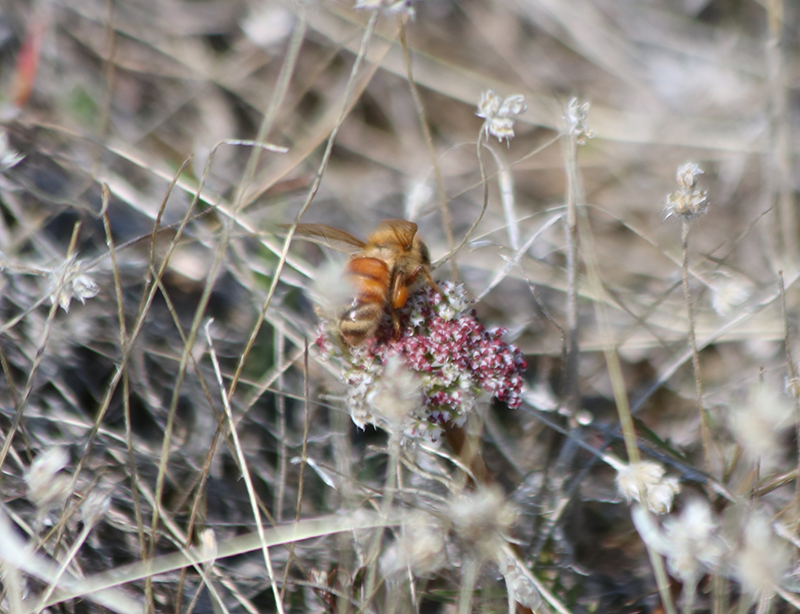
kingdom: Animalia
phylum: Arthropoda
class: Insecta
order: Hymenoptera
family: Apidae
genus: Apis
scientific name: Apis mellifera
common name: Honey bee
